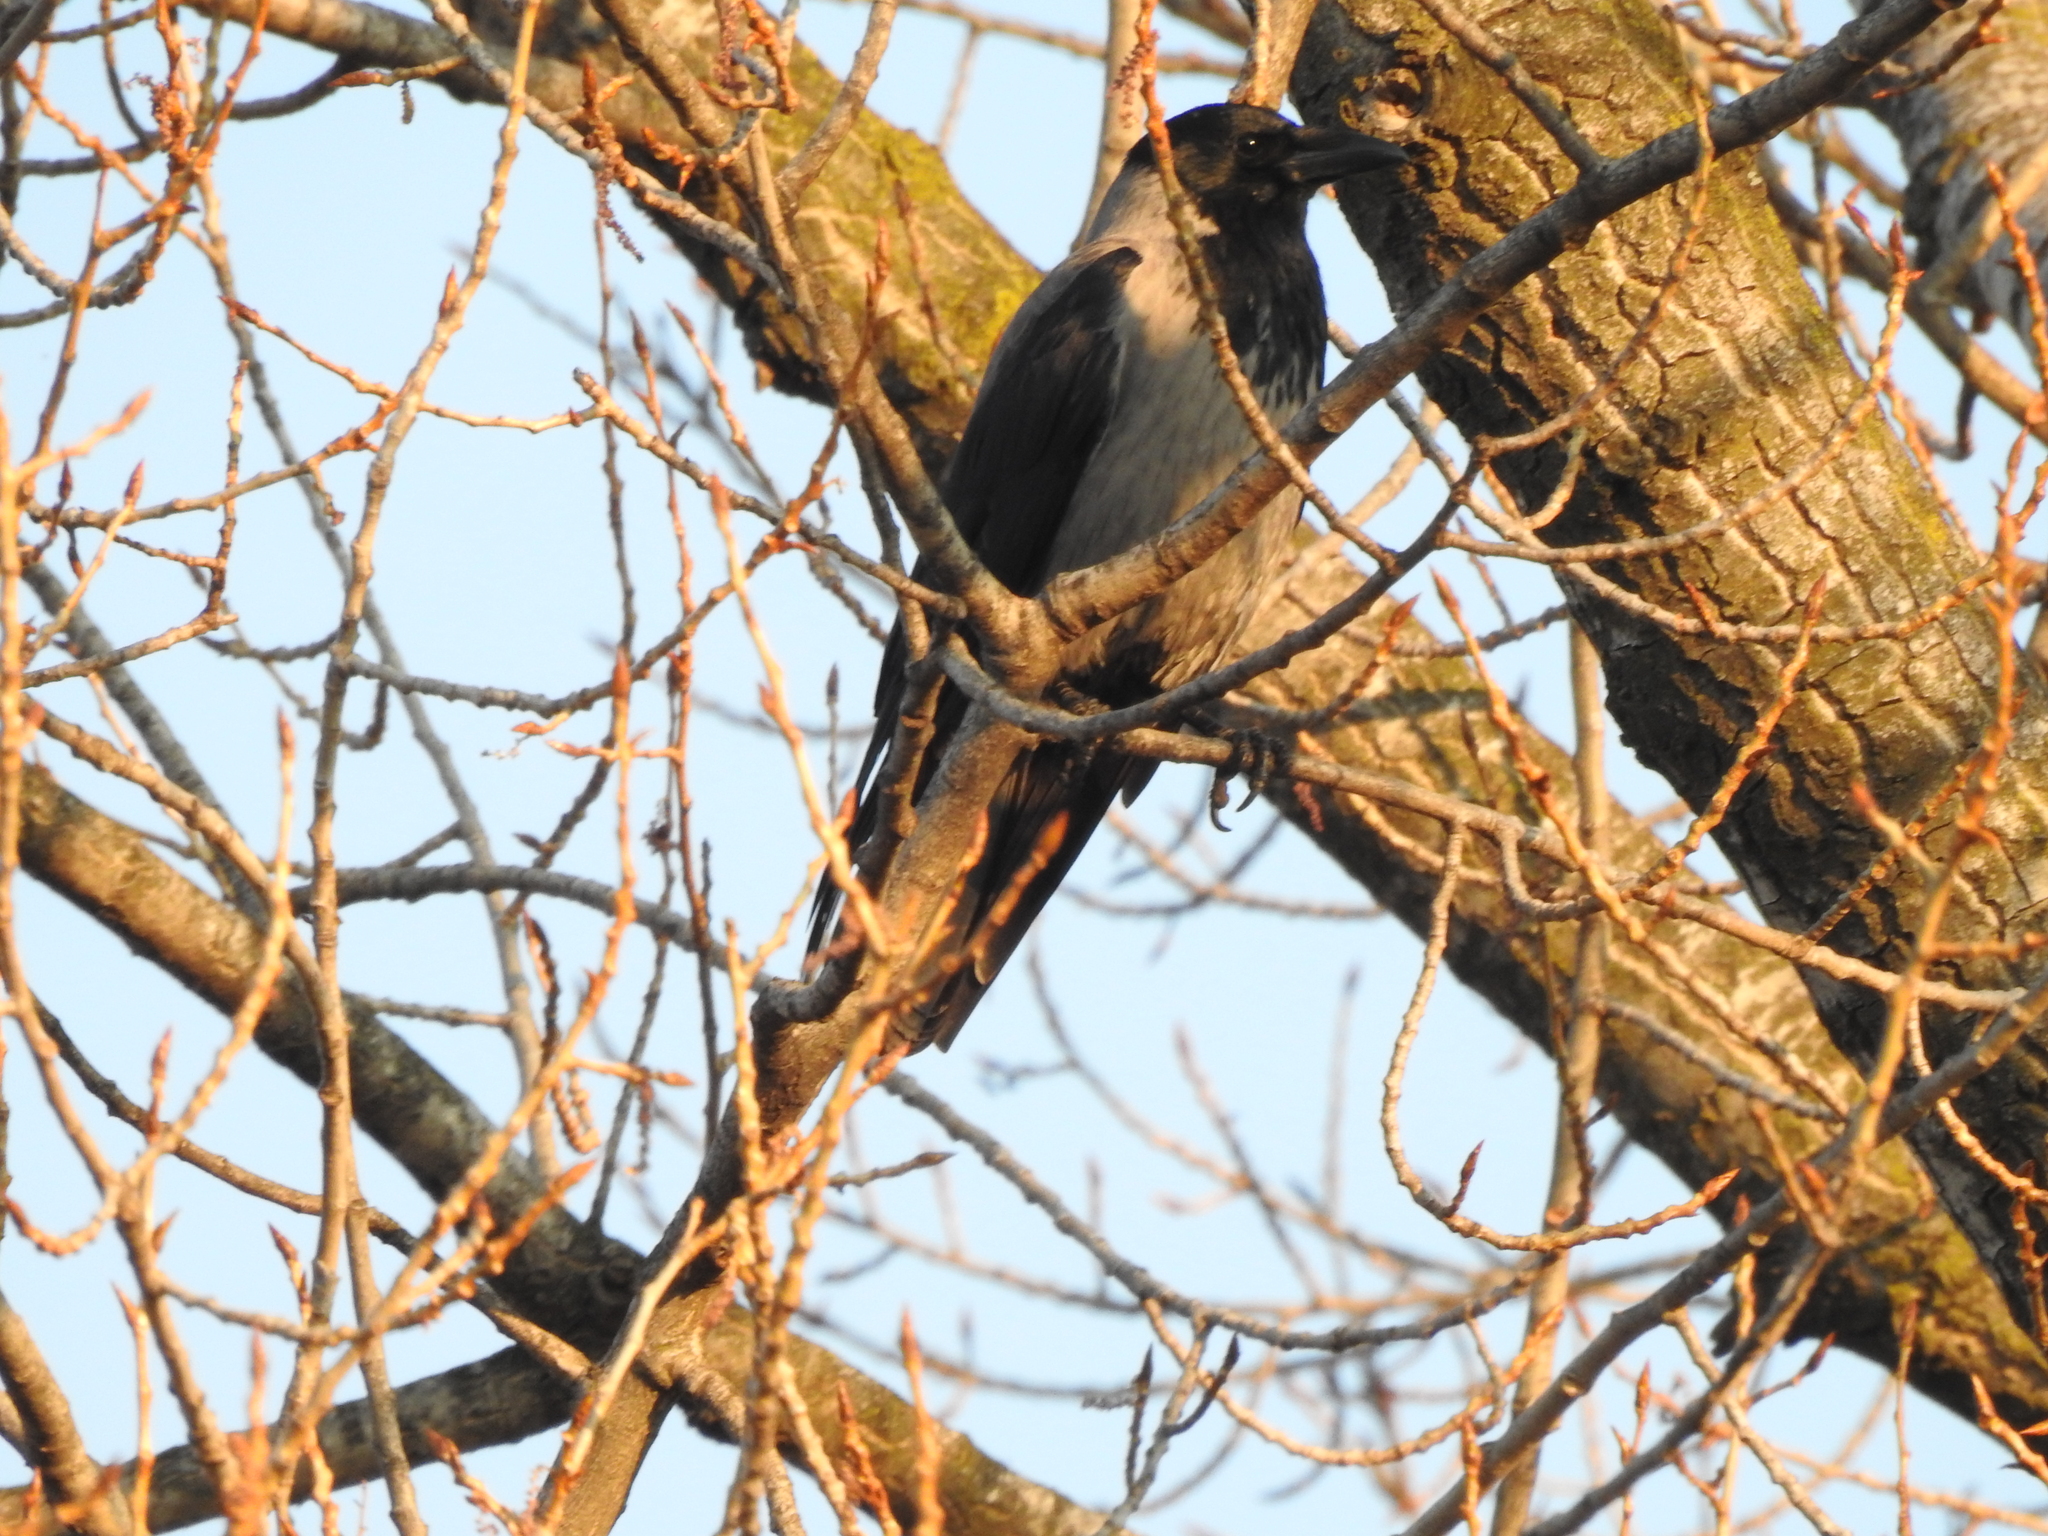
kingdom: Animalia
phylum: Chordata
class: Aves
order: Passeriformes
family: Corvidae
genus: Corvus
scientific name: Corvus cornix
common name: Hooded crow
